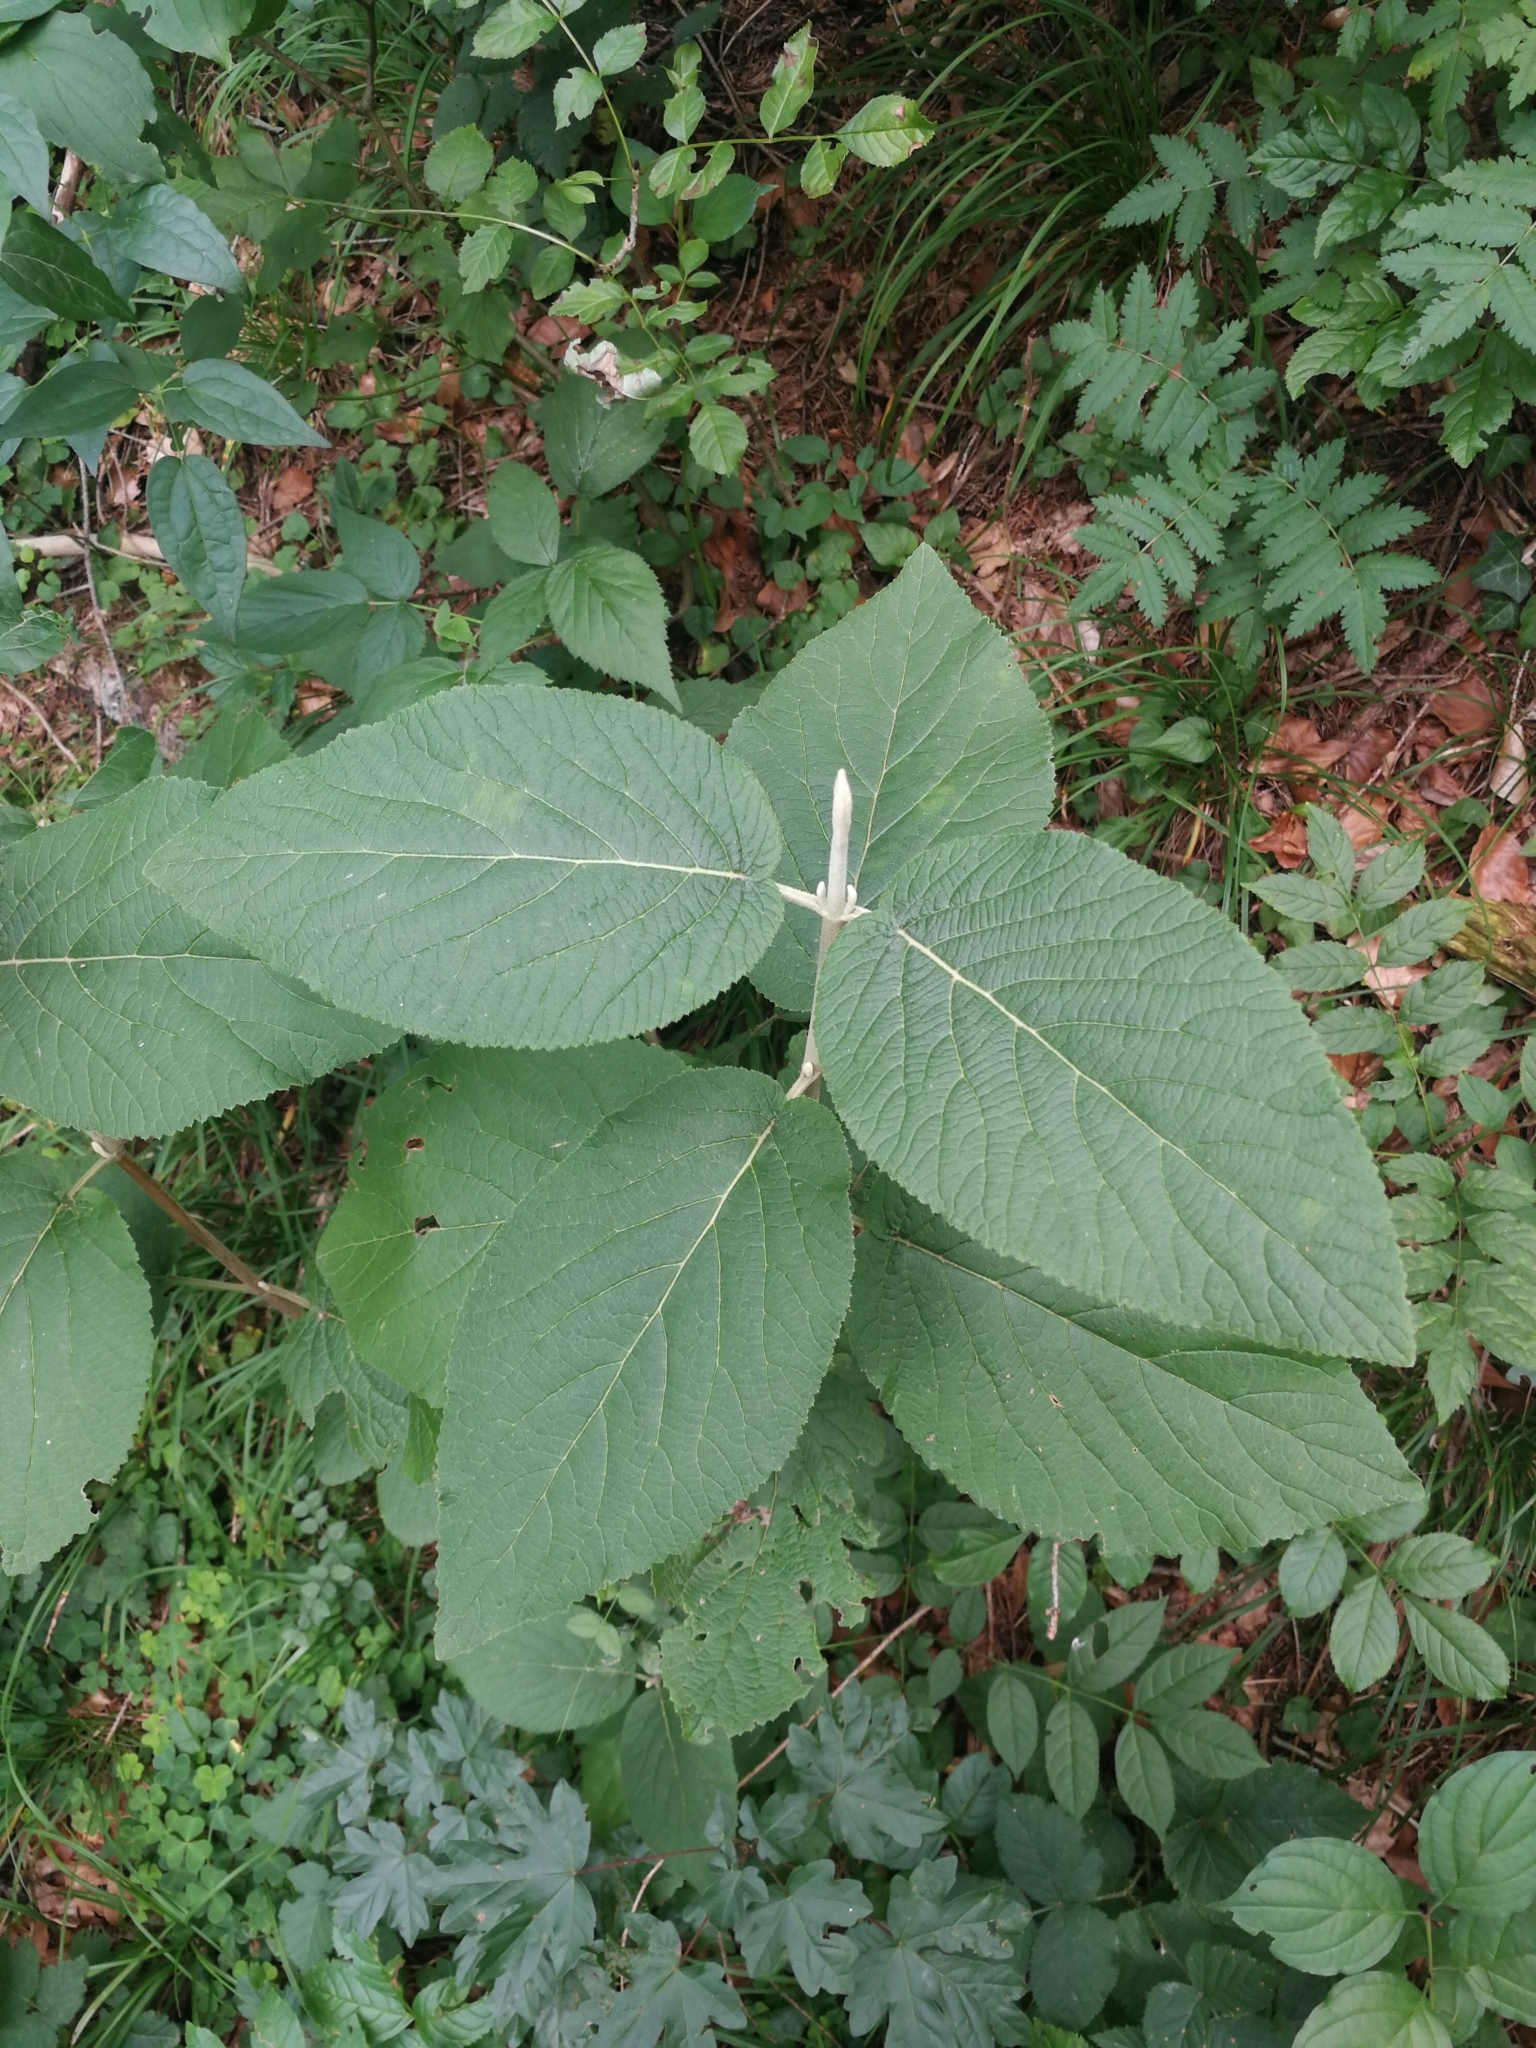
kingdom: Plantae
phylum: Tracheophyta
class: Magnoliopsida
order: Dipsacales
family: Viburnaceae
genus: Viburnum
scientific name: Viburnum lantana
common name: Wayfaring tree
